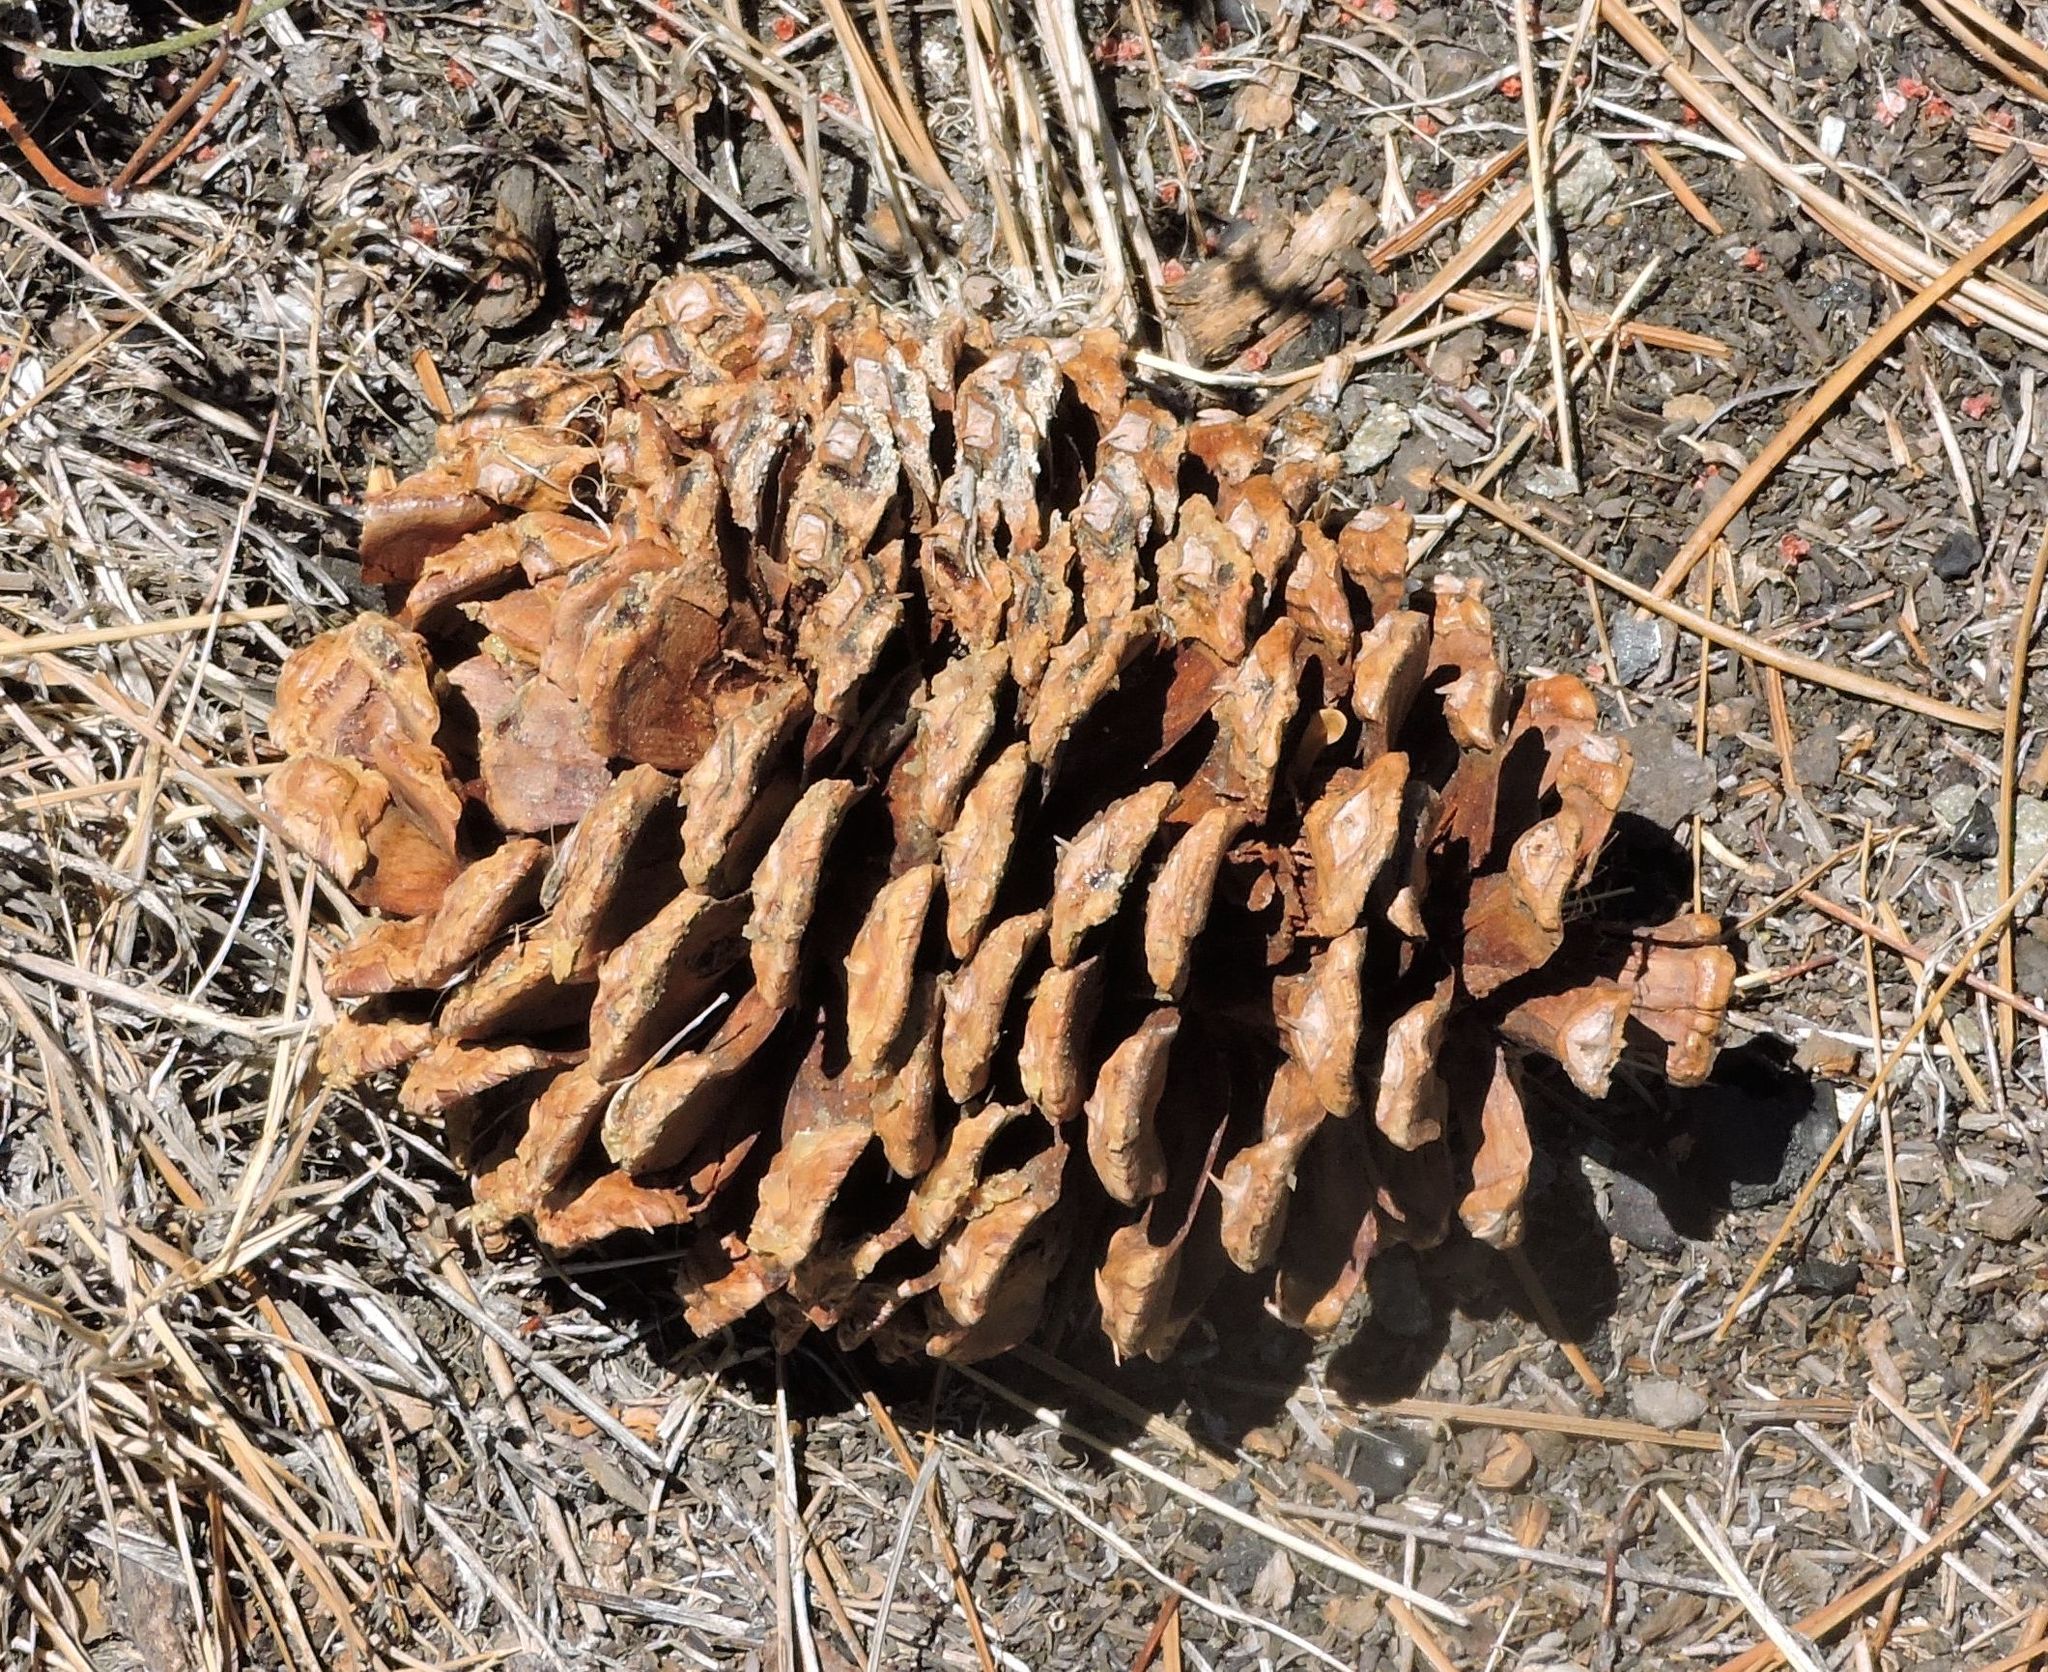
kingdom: Plantae
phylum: Tracheophyta
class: Pinopsida
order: Pinales
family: Pinaceae
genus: Pinus
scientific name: Pinus jeffreyi
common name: Jeffrey pine
